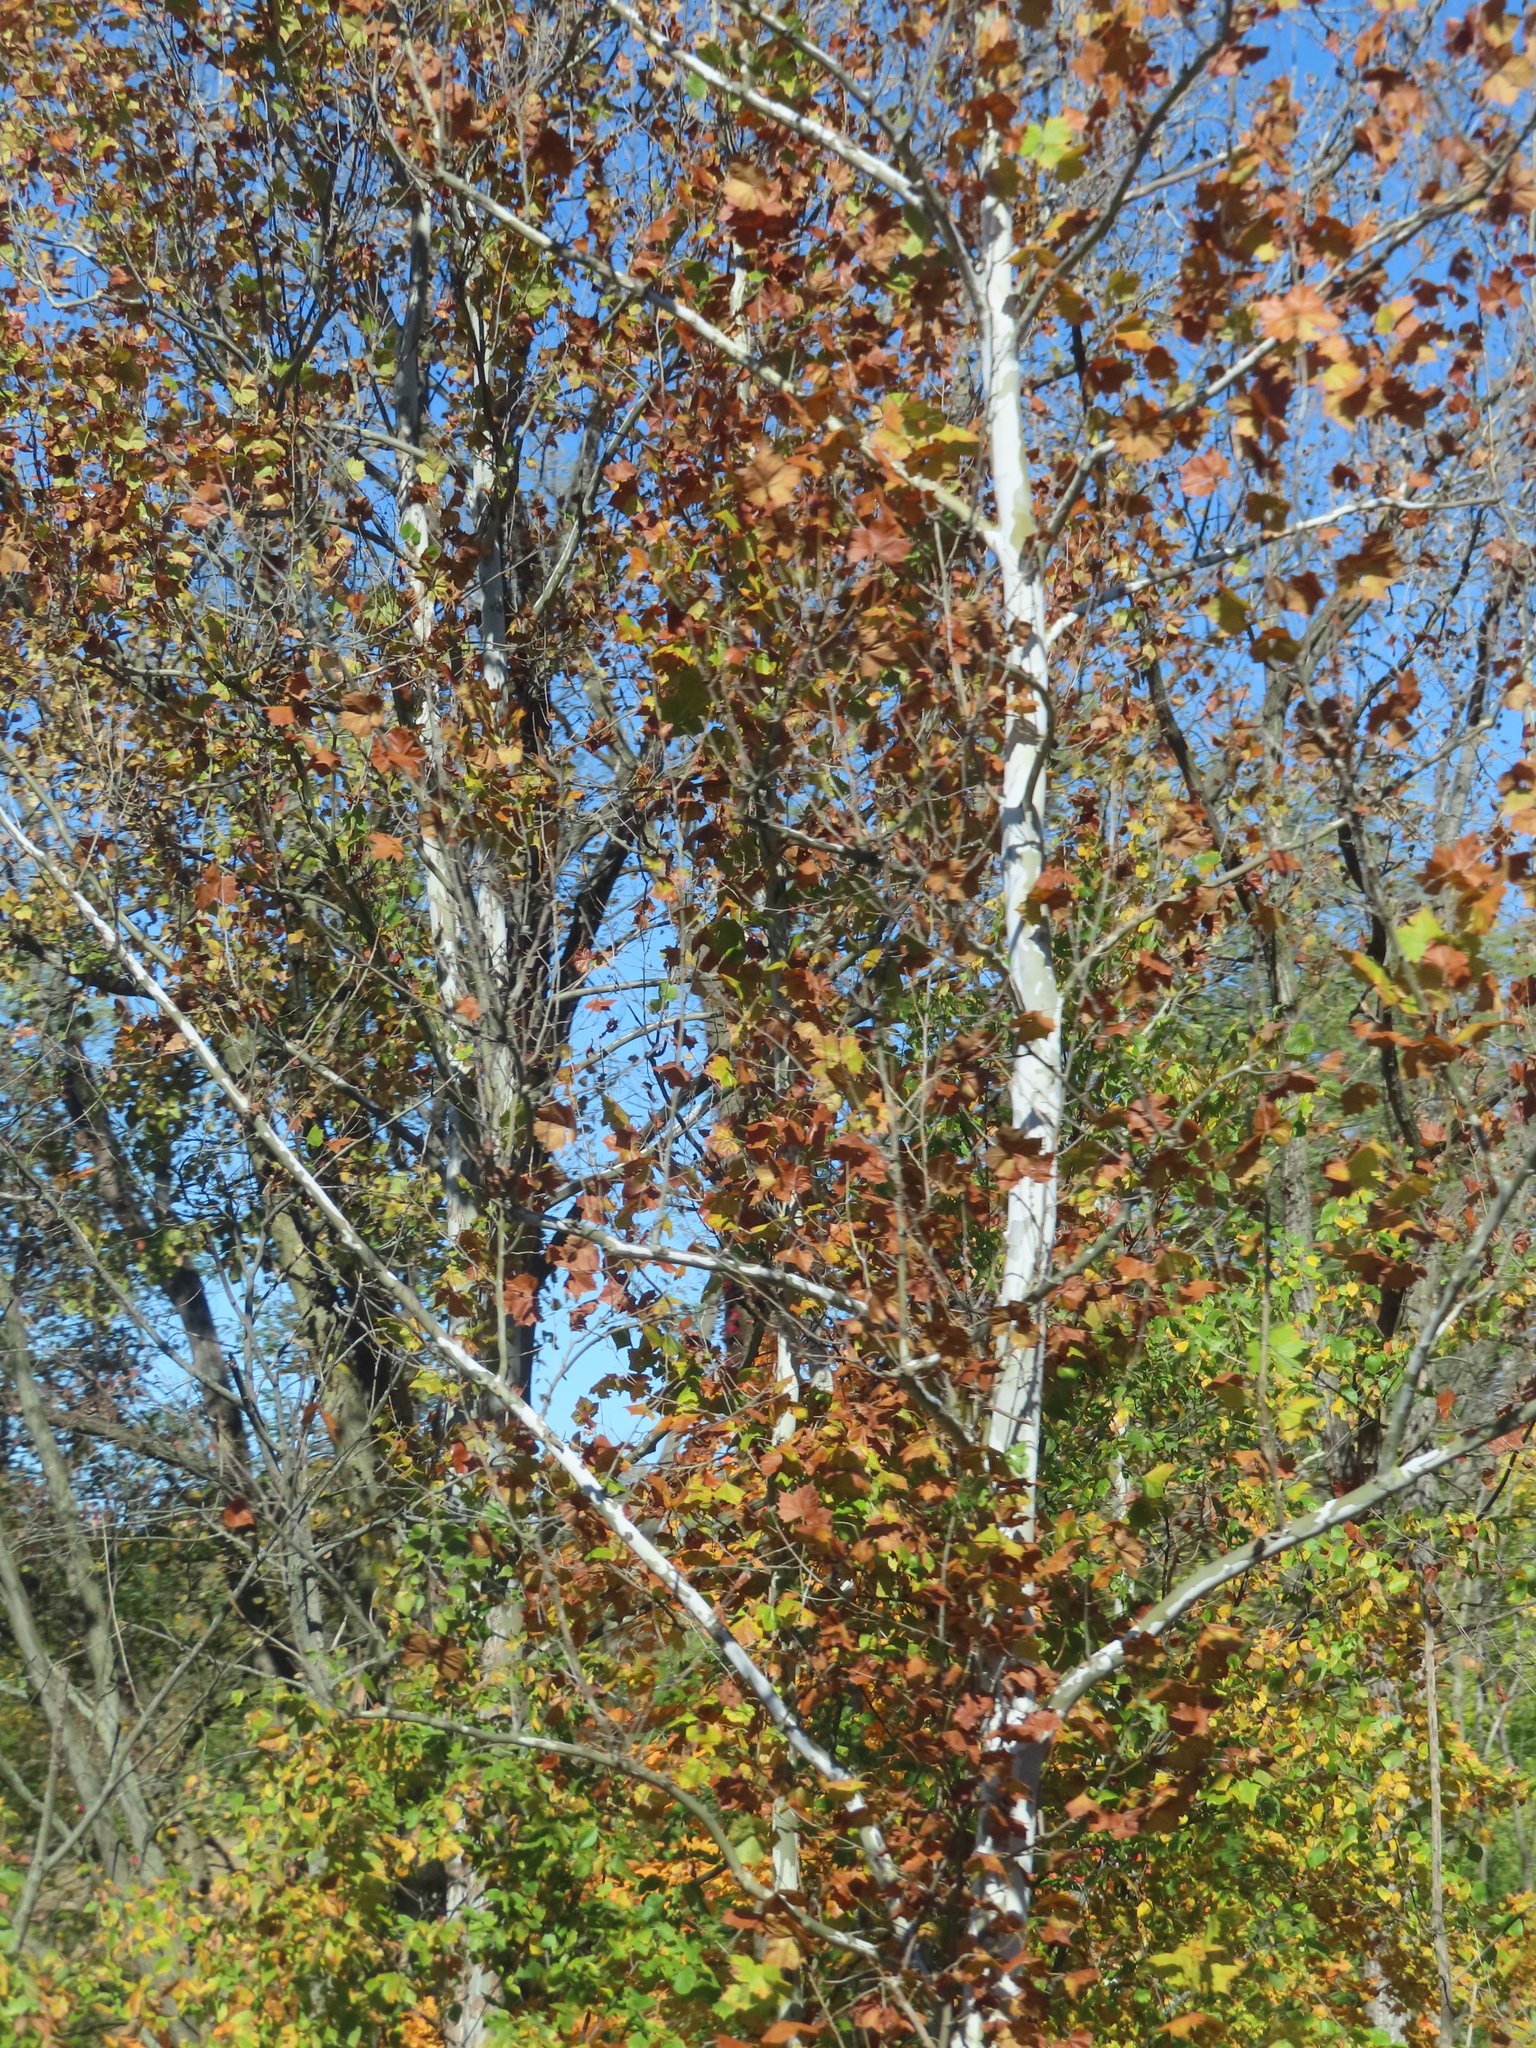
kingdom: Plantae
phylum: Tracheophyta
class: Magnoliopsida
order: Proteales
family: Platanaceae
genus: Platanus
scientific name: Platanus occidentalis
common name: American sycamore
